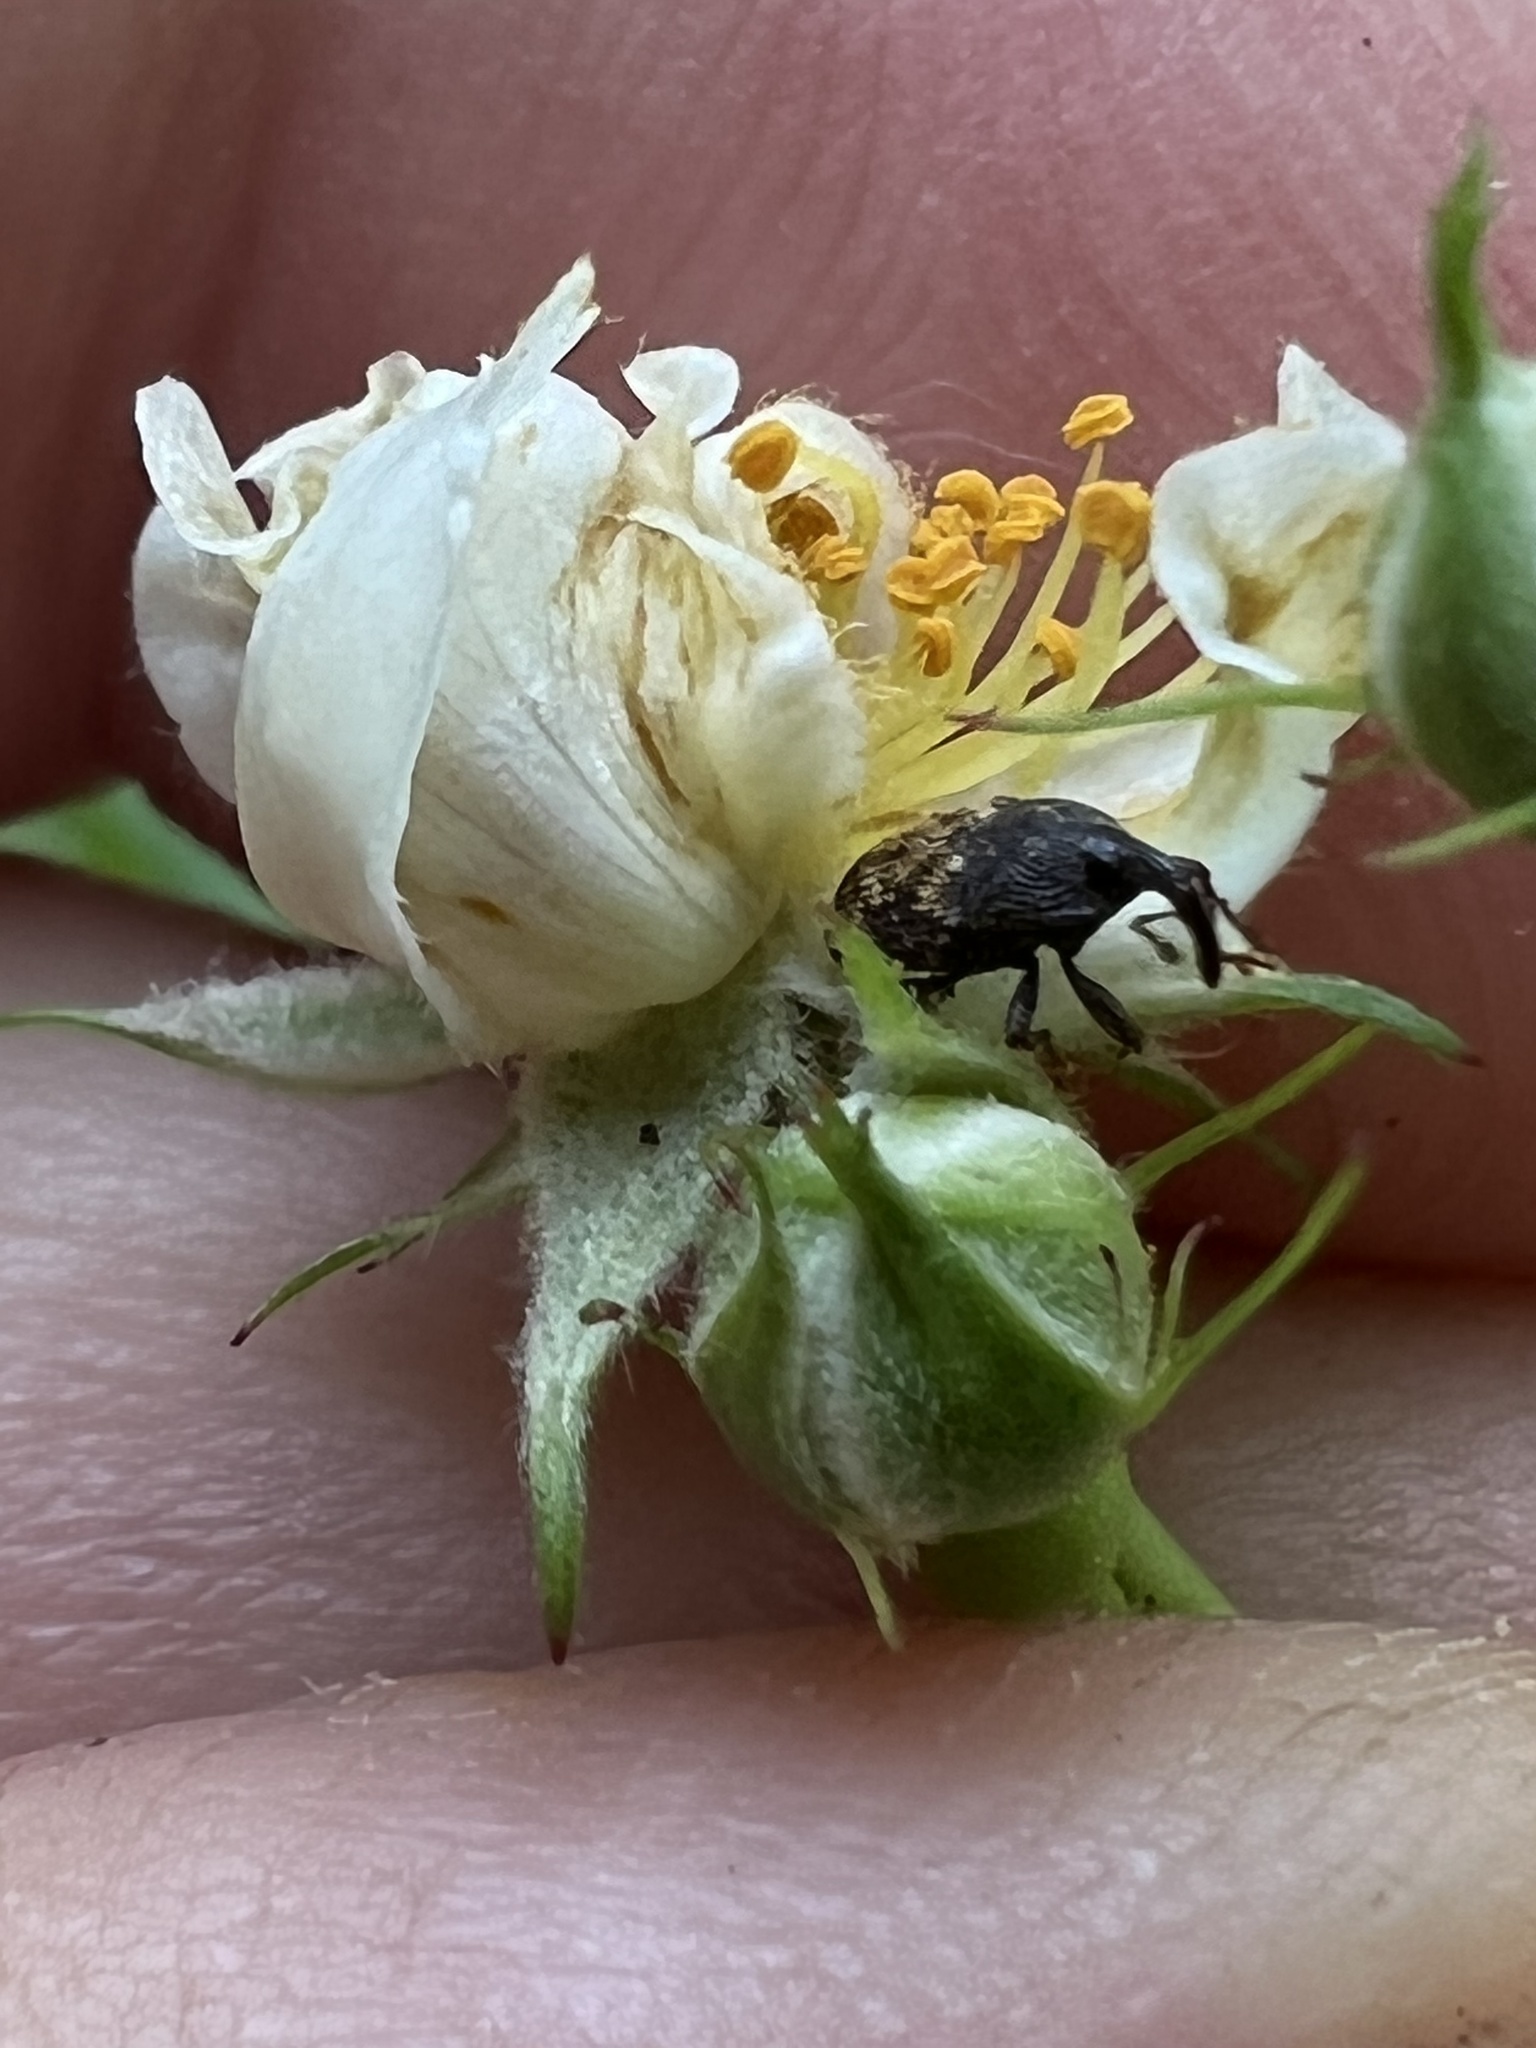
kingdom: Animalia
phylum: Arthropoda
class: Insecta
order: Coleoptera
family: Curculionidae
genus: Glyptobaris
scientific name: Glyptobaris lecontei
